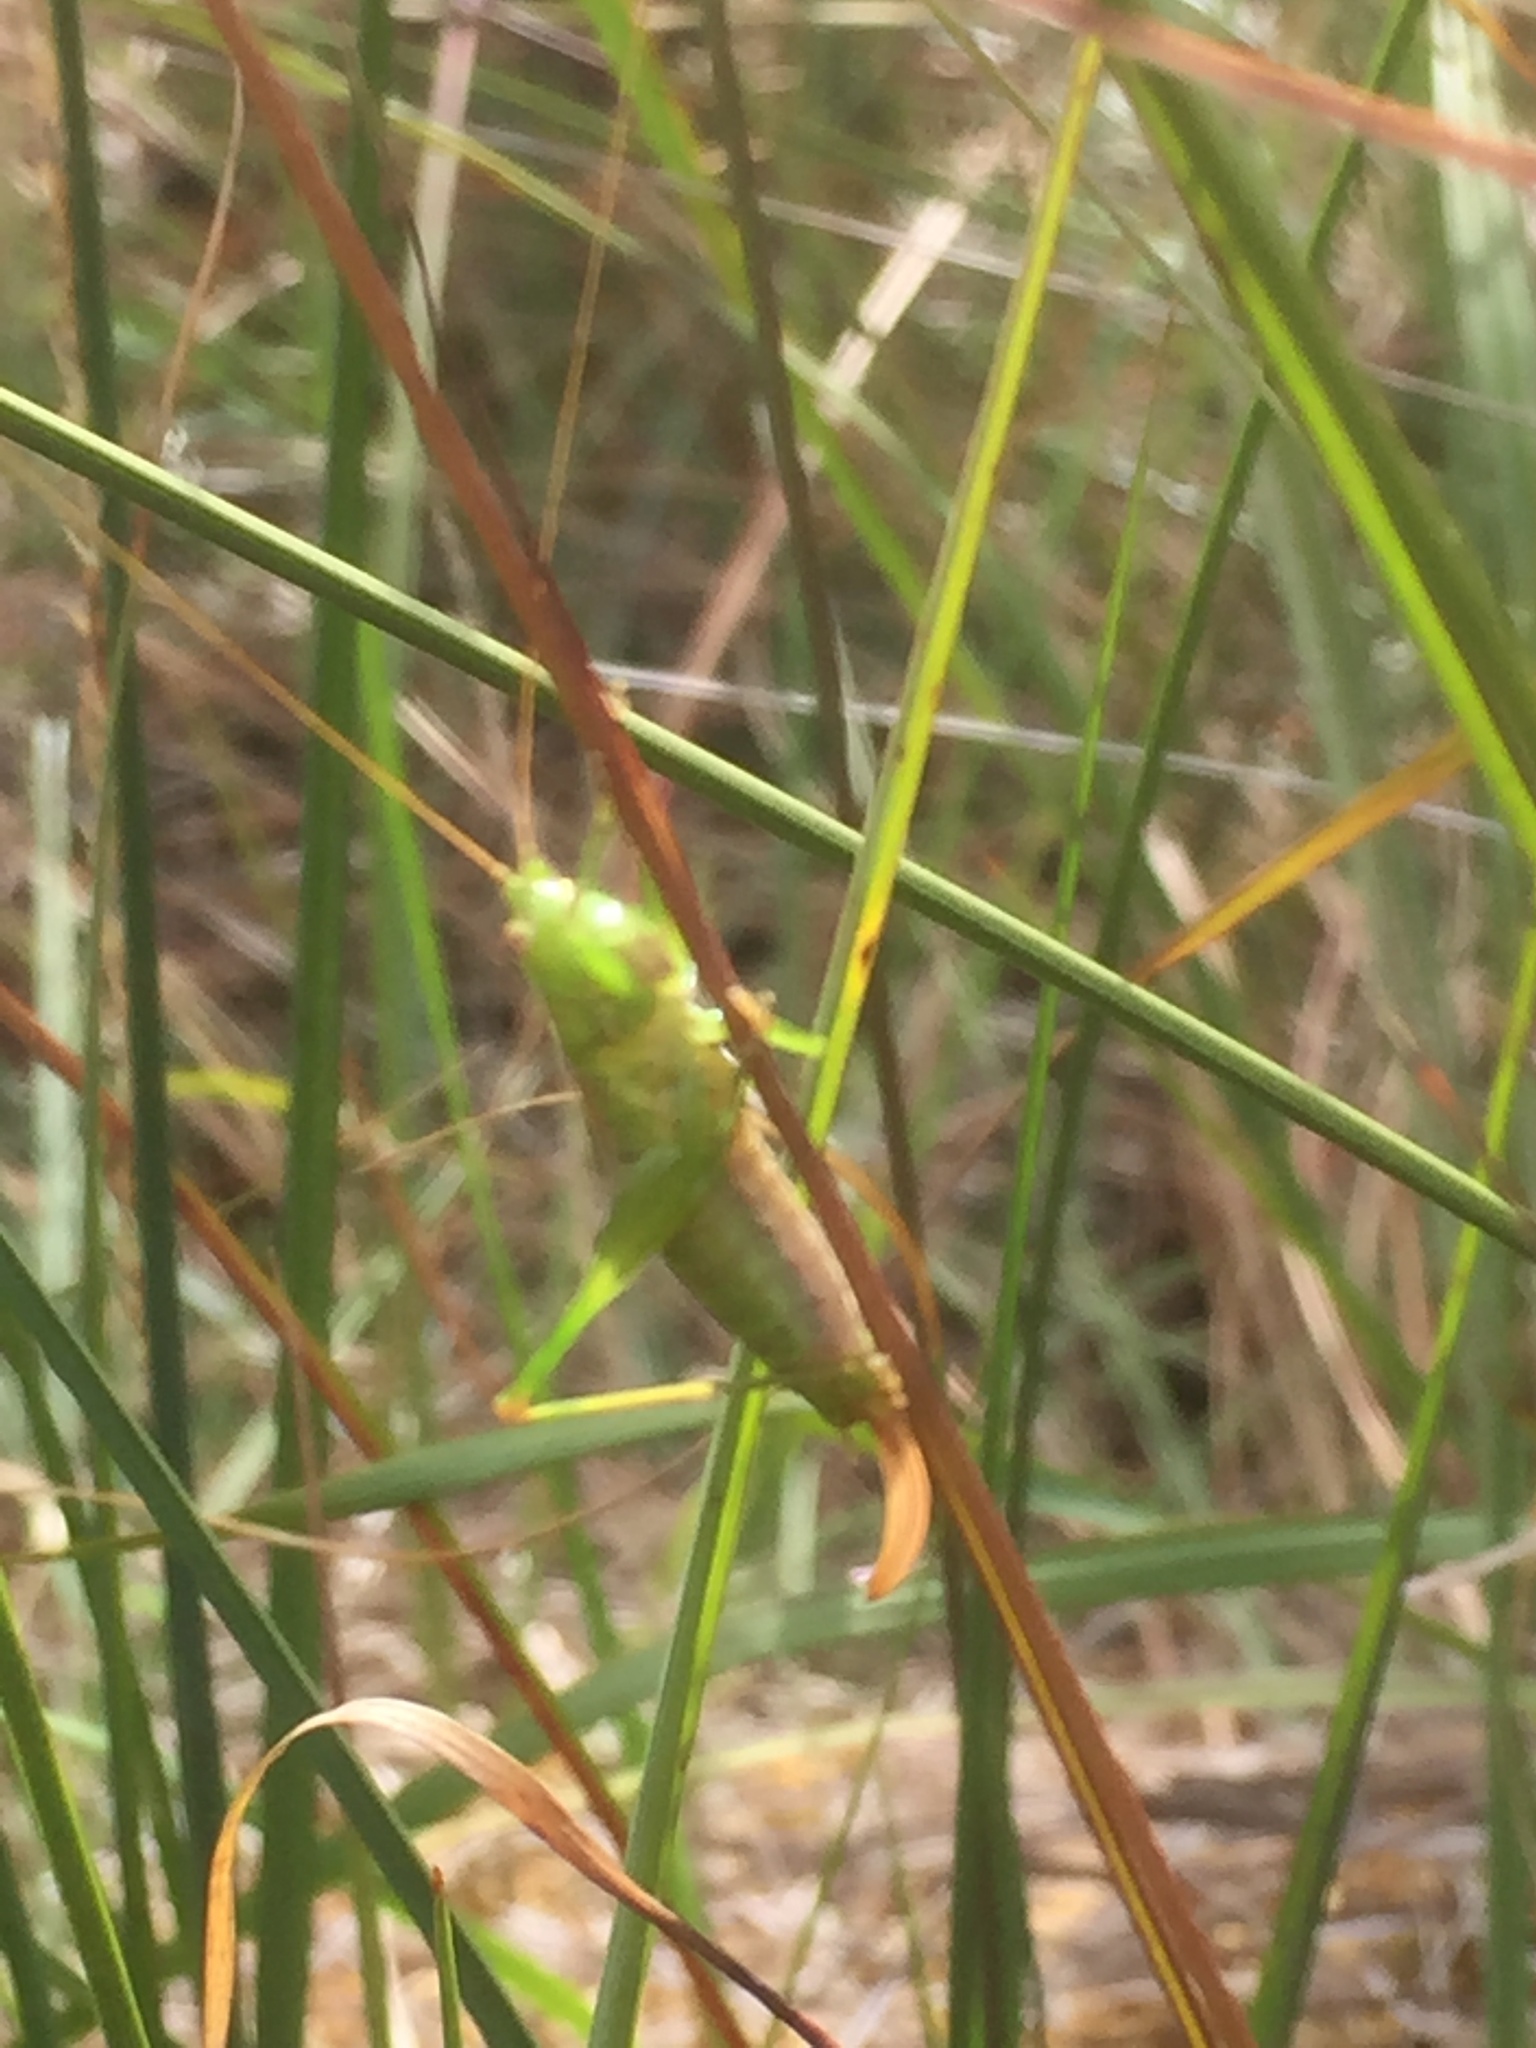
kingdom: Animalia
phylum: Arthropoda
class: Insecta
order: Orthoptera
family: Tettigoniidae
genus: Conocephalus
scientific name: Conocephalus dorsalis
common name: Short-winged conehead
